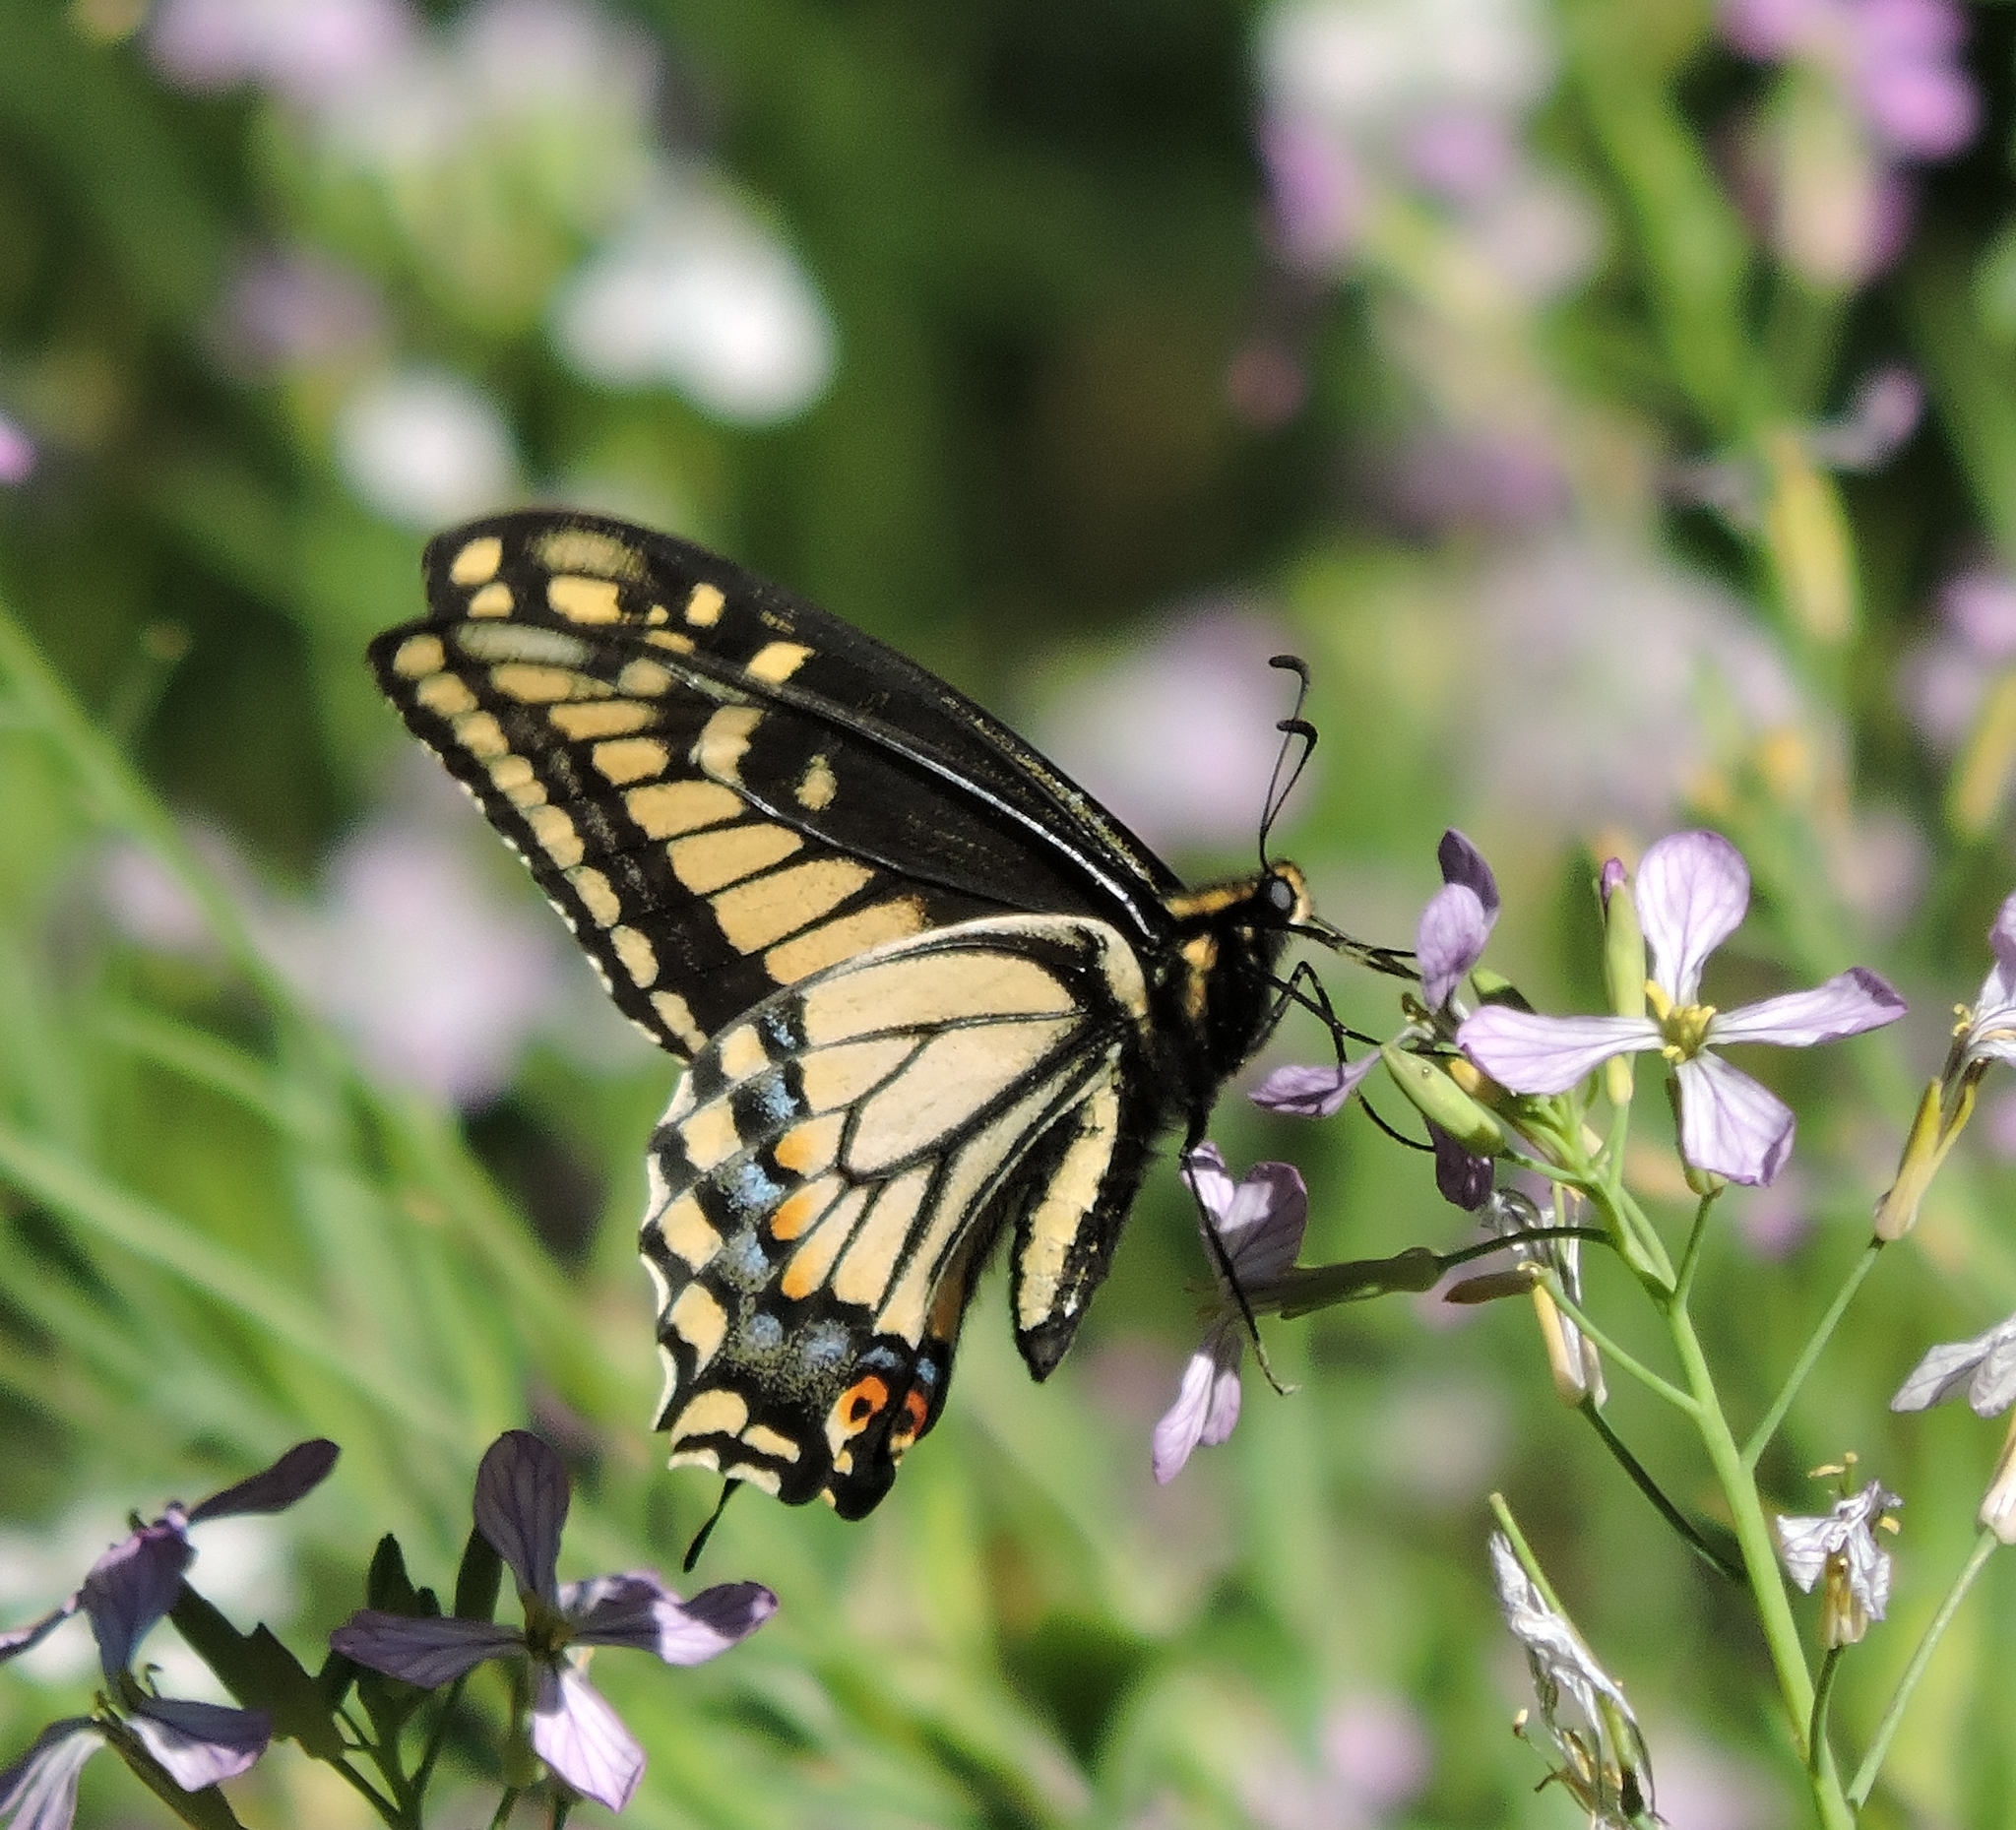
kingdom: Animalia
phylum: Arthropoda
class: Insecta
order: Lepidoptera
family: Papilionidae
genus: Papilio
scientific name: Papilio zelicaon
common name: Anise swallowtail
